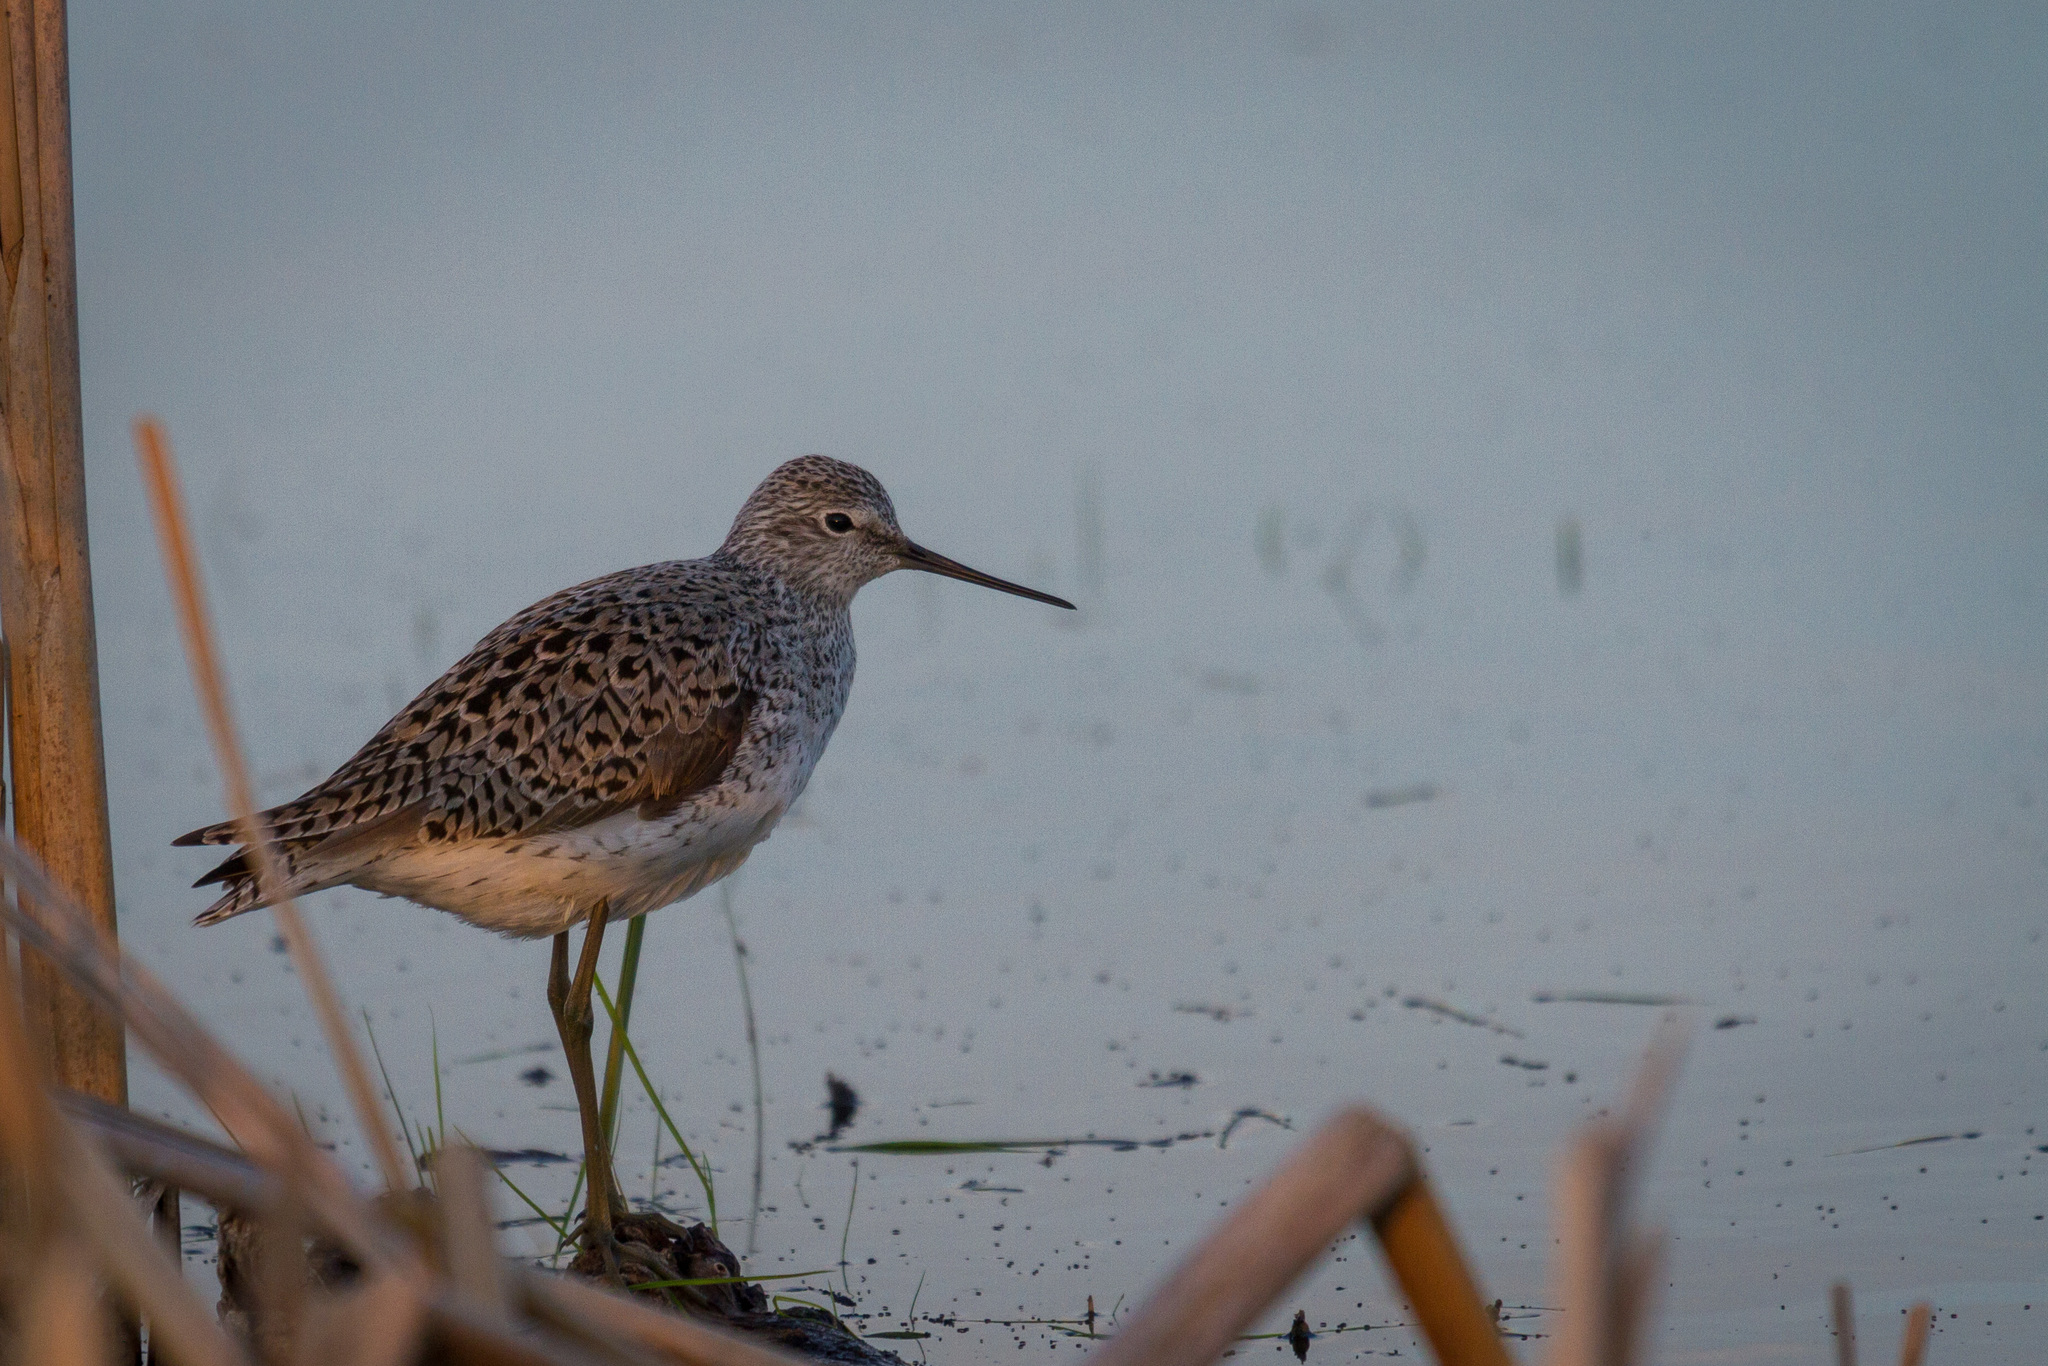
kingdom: Animalia
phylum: Chordata
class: Aves
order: Charadriiformes
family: Scolopacidae
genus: Tringa
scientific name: Tringa stagnatilis
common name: Marsh sandpiper
